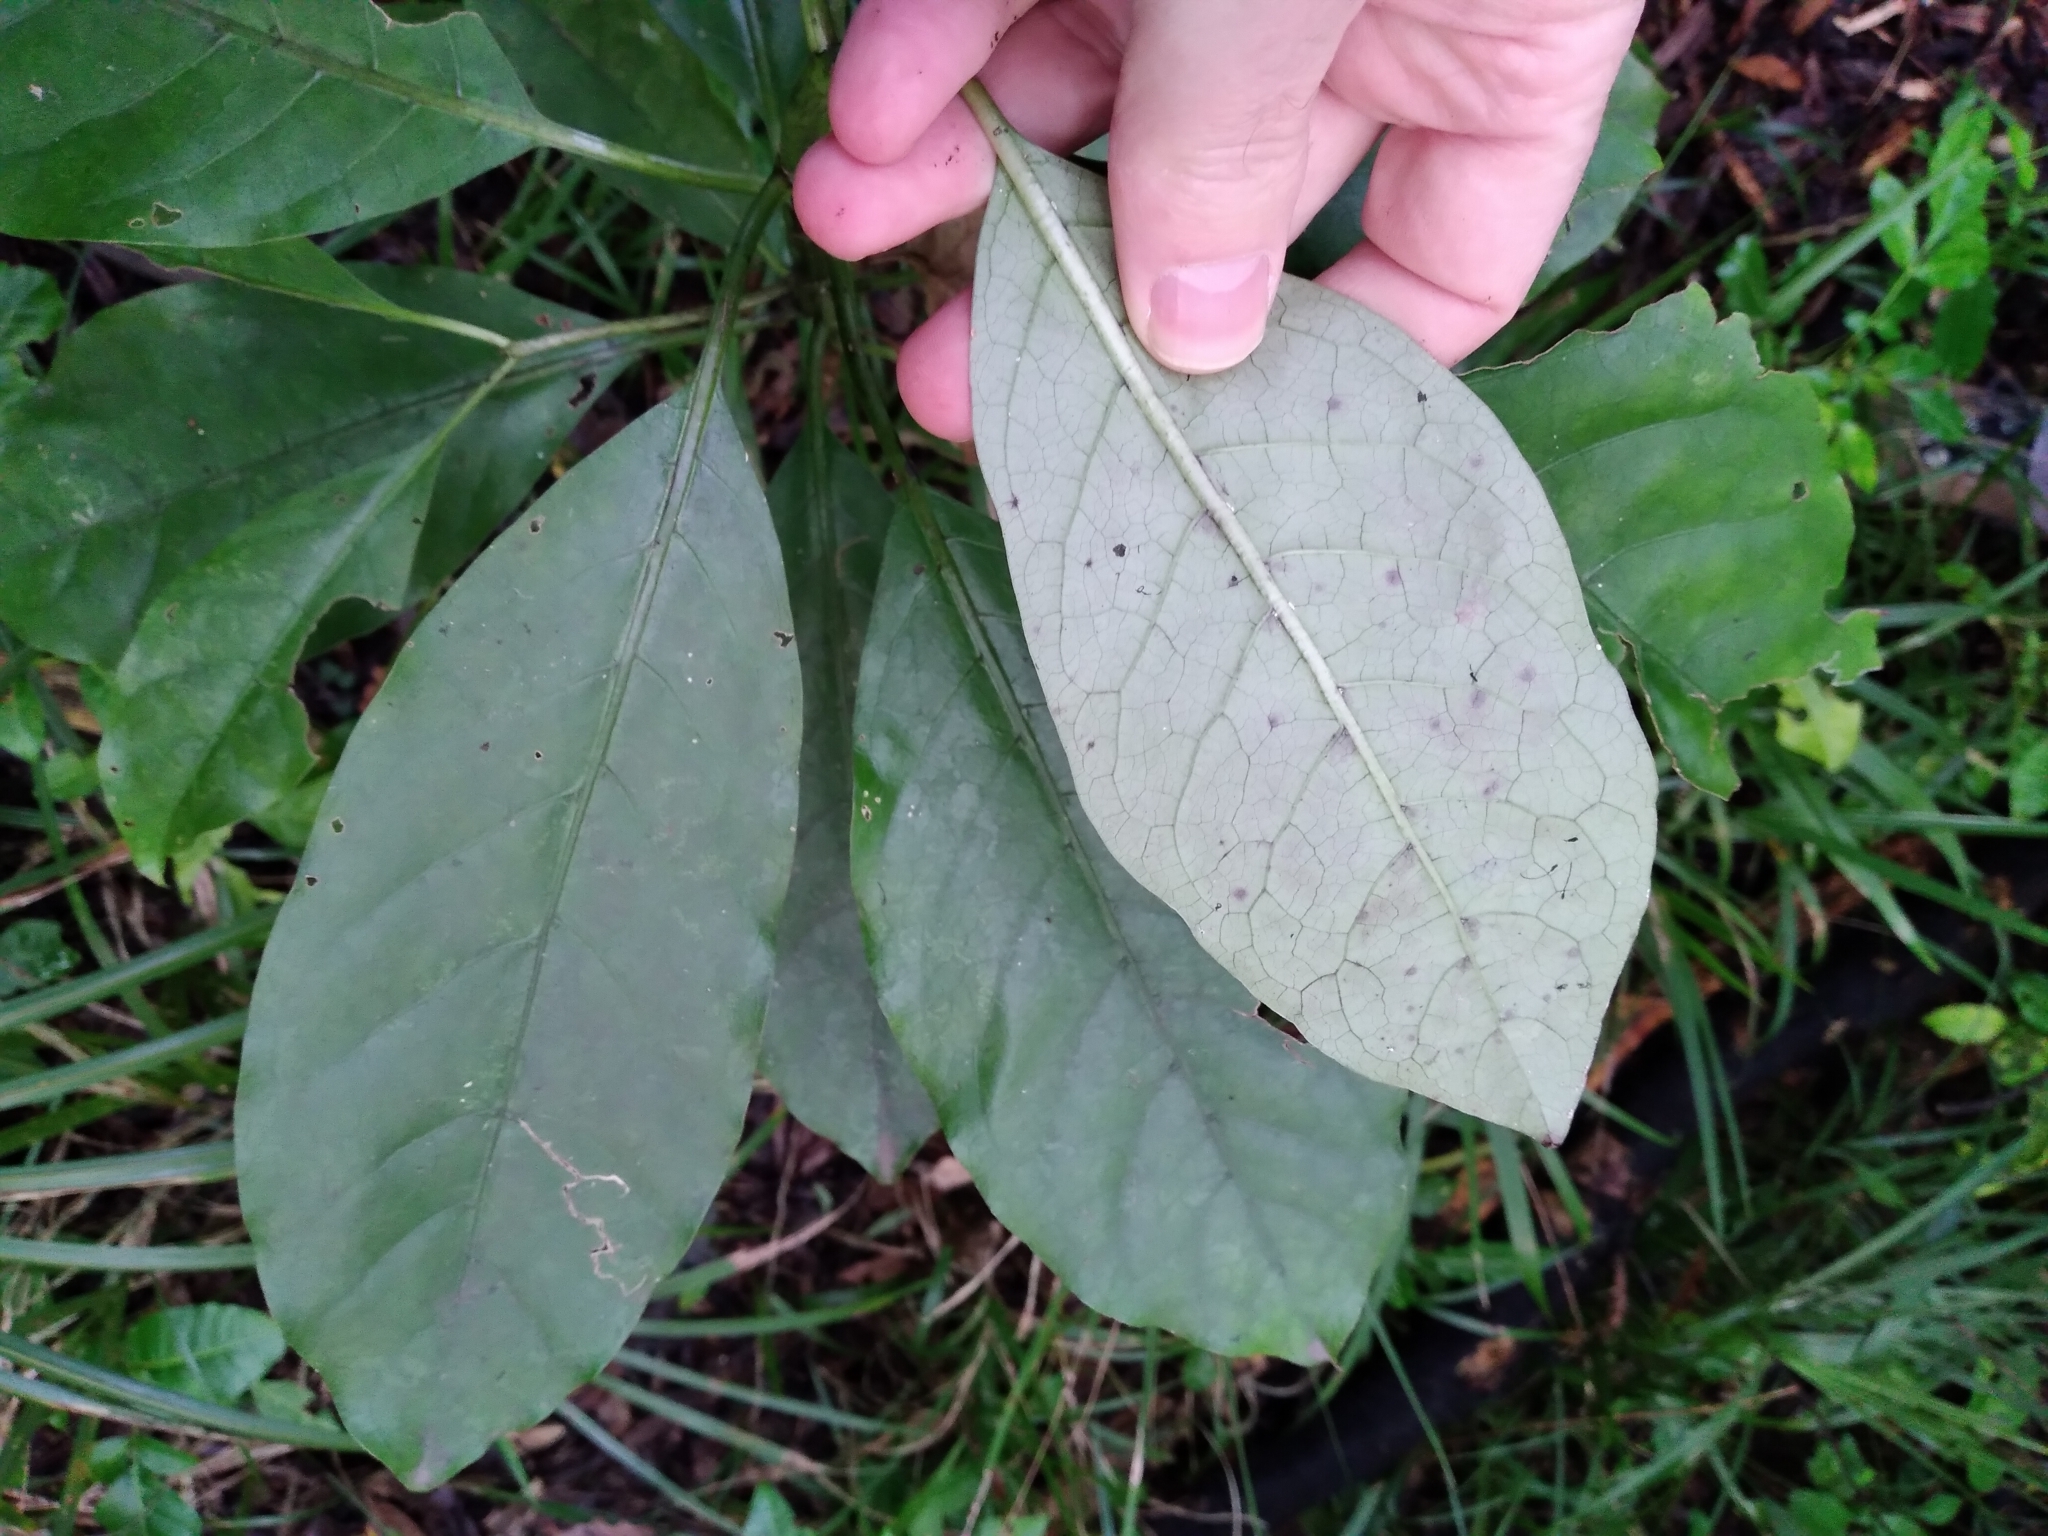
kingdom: Plantae
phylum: Tracheophyta
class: Magnoliopsida
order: Gentianales
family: Rubiaceae
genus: Coprosma
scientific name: Coprosma autumnalis
